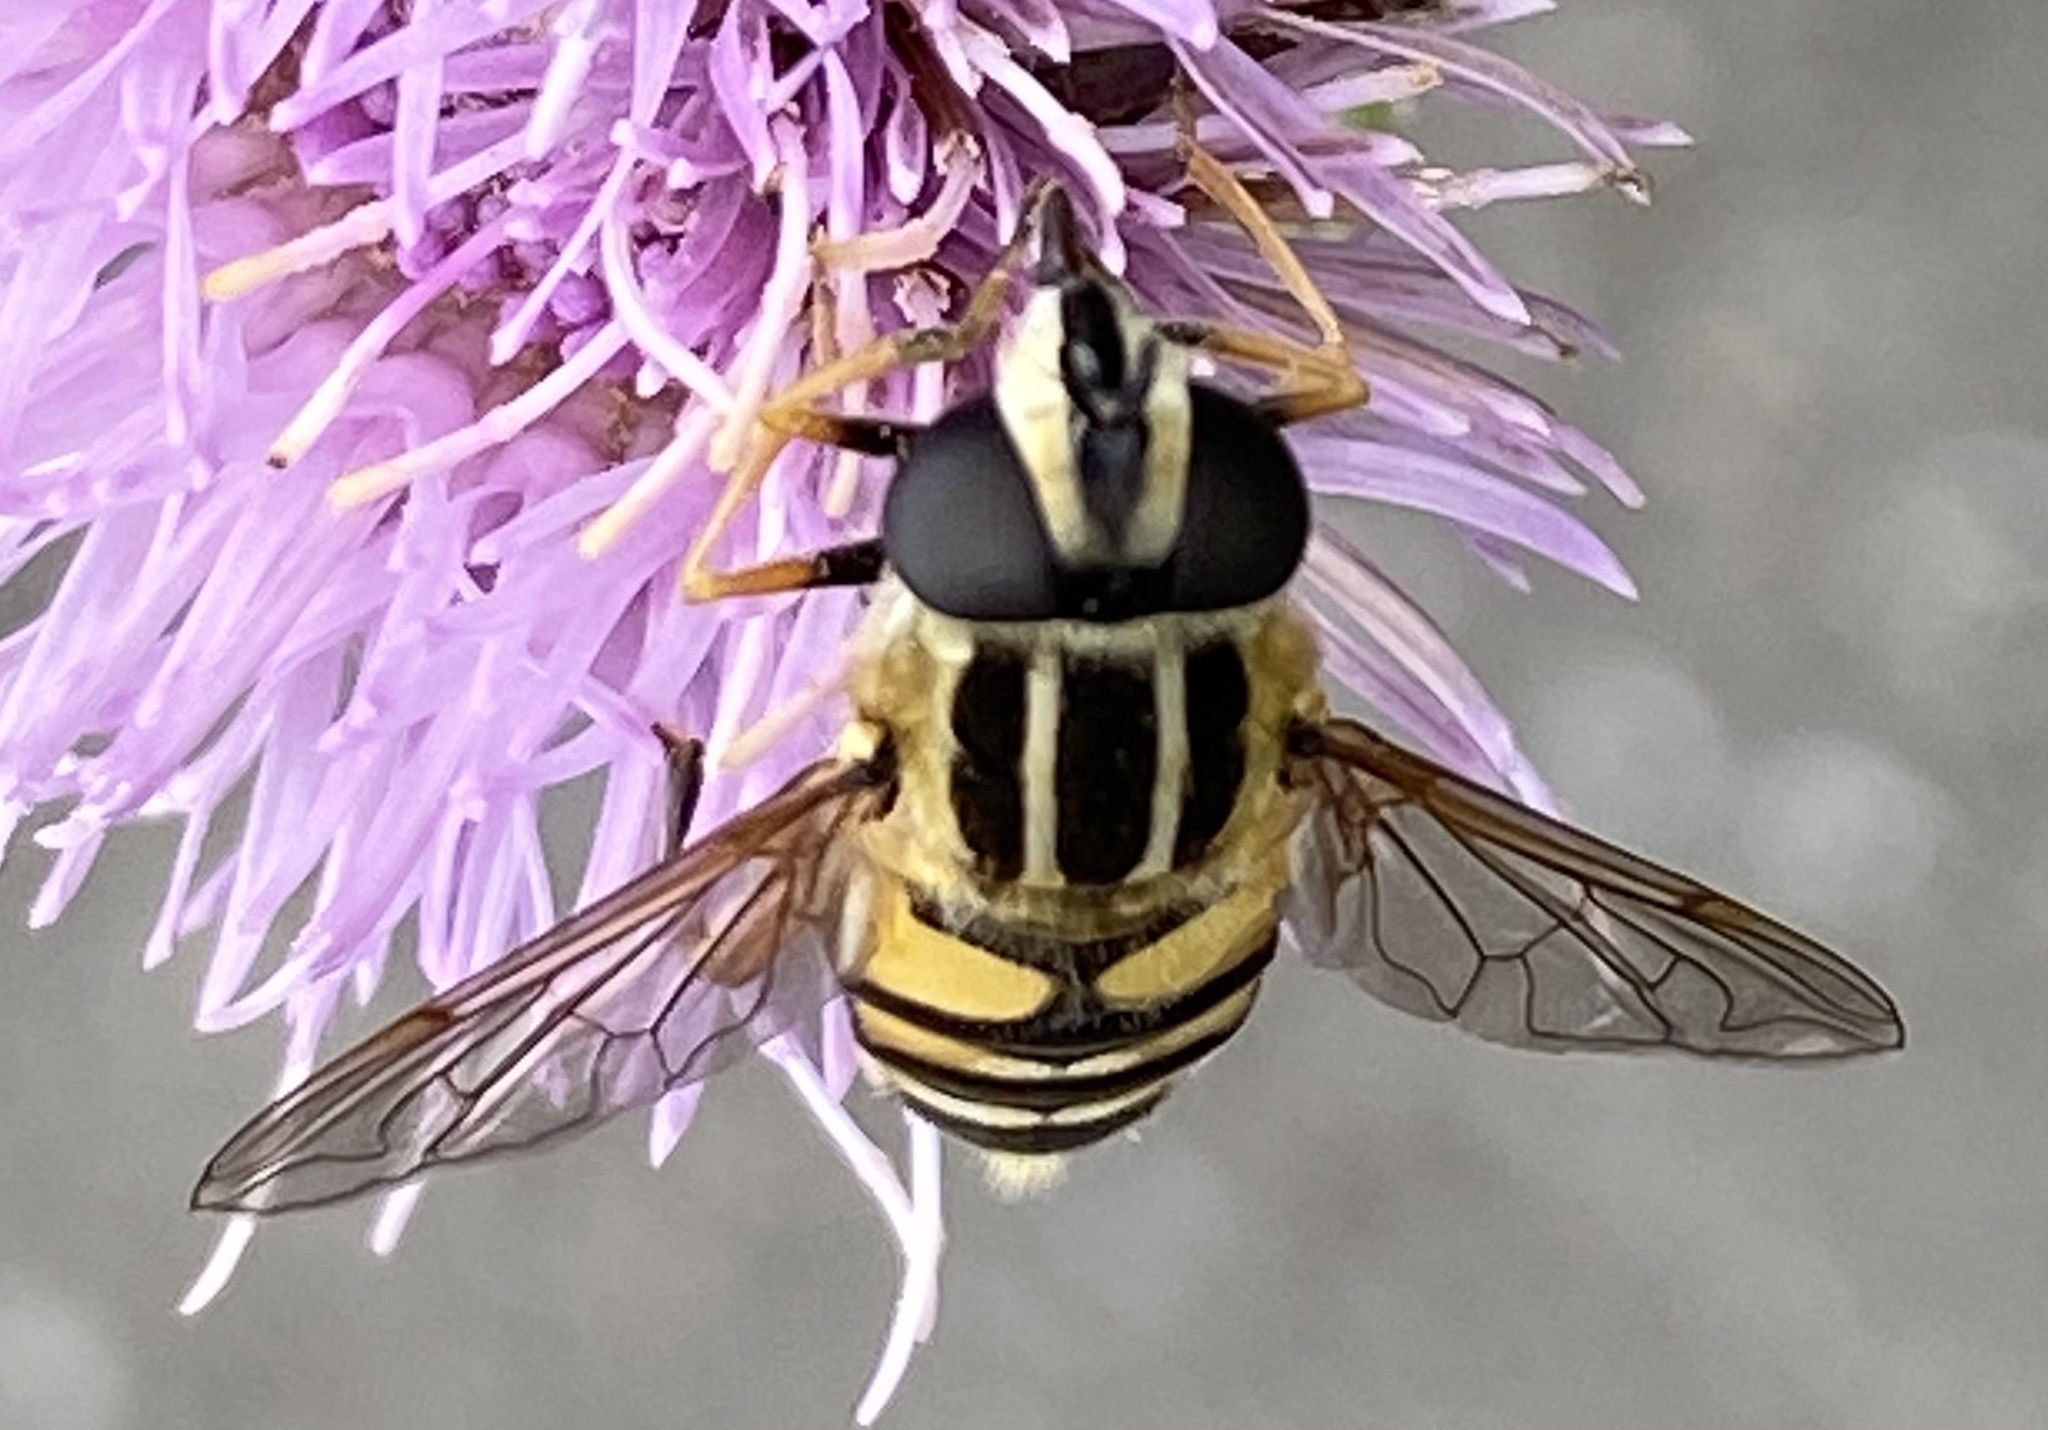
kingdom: Animalia
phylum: Arthropoda
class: Insecta
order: Diptera
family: Syrphidae
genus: Helophilus
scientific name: Helophilus pendulus
